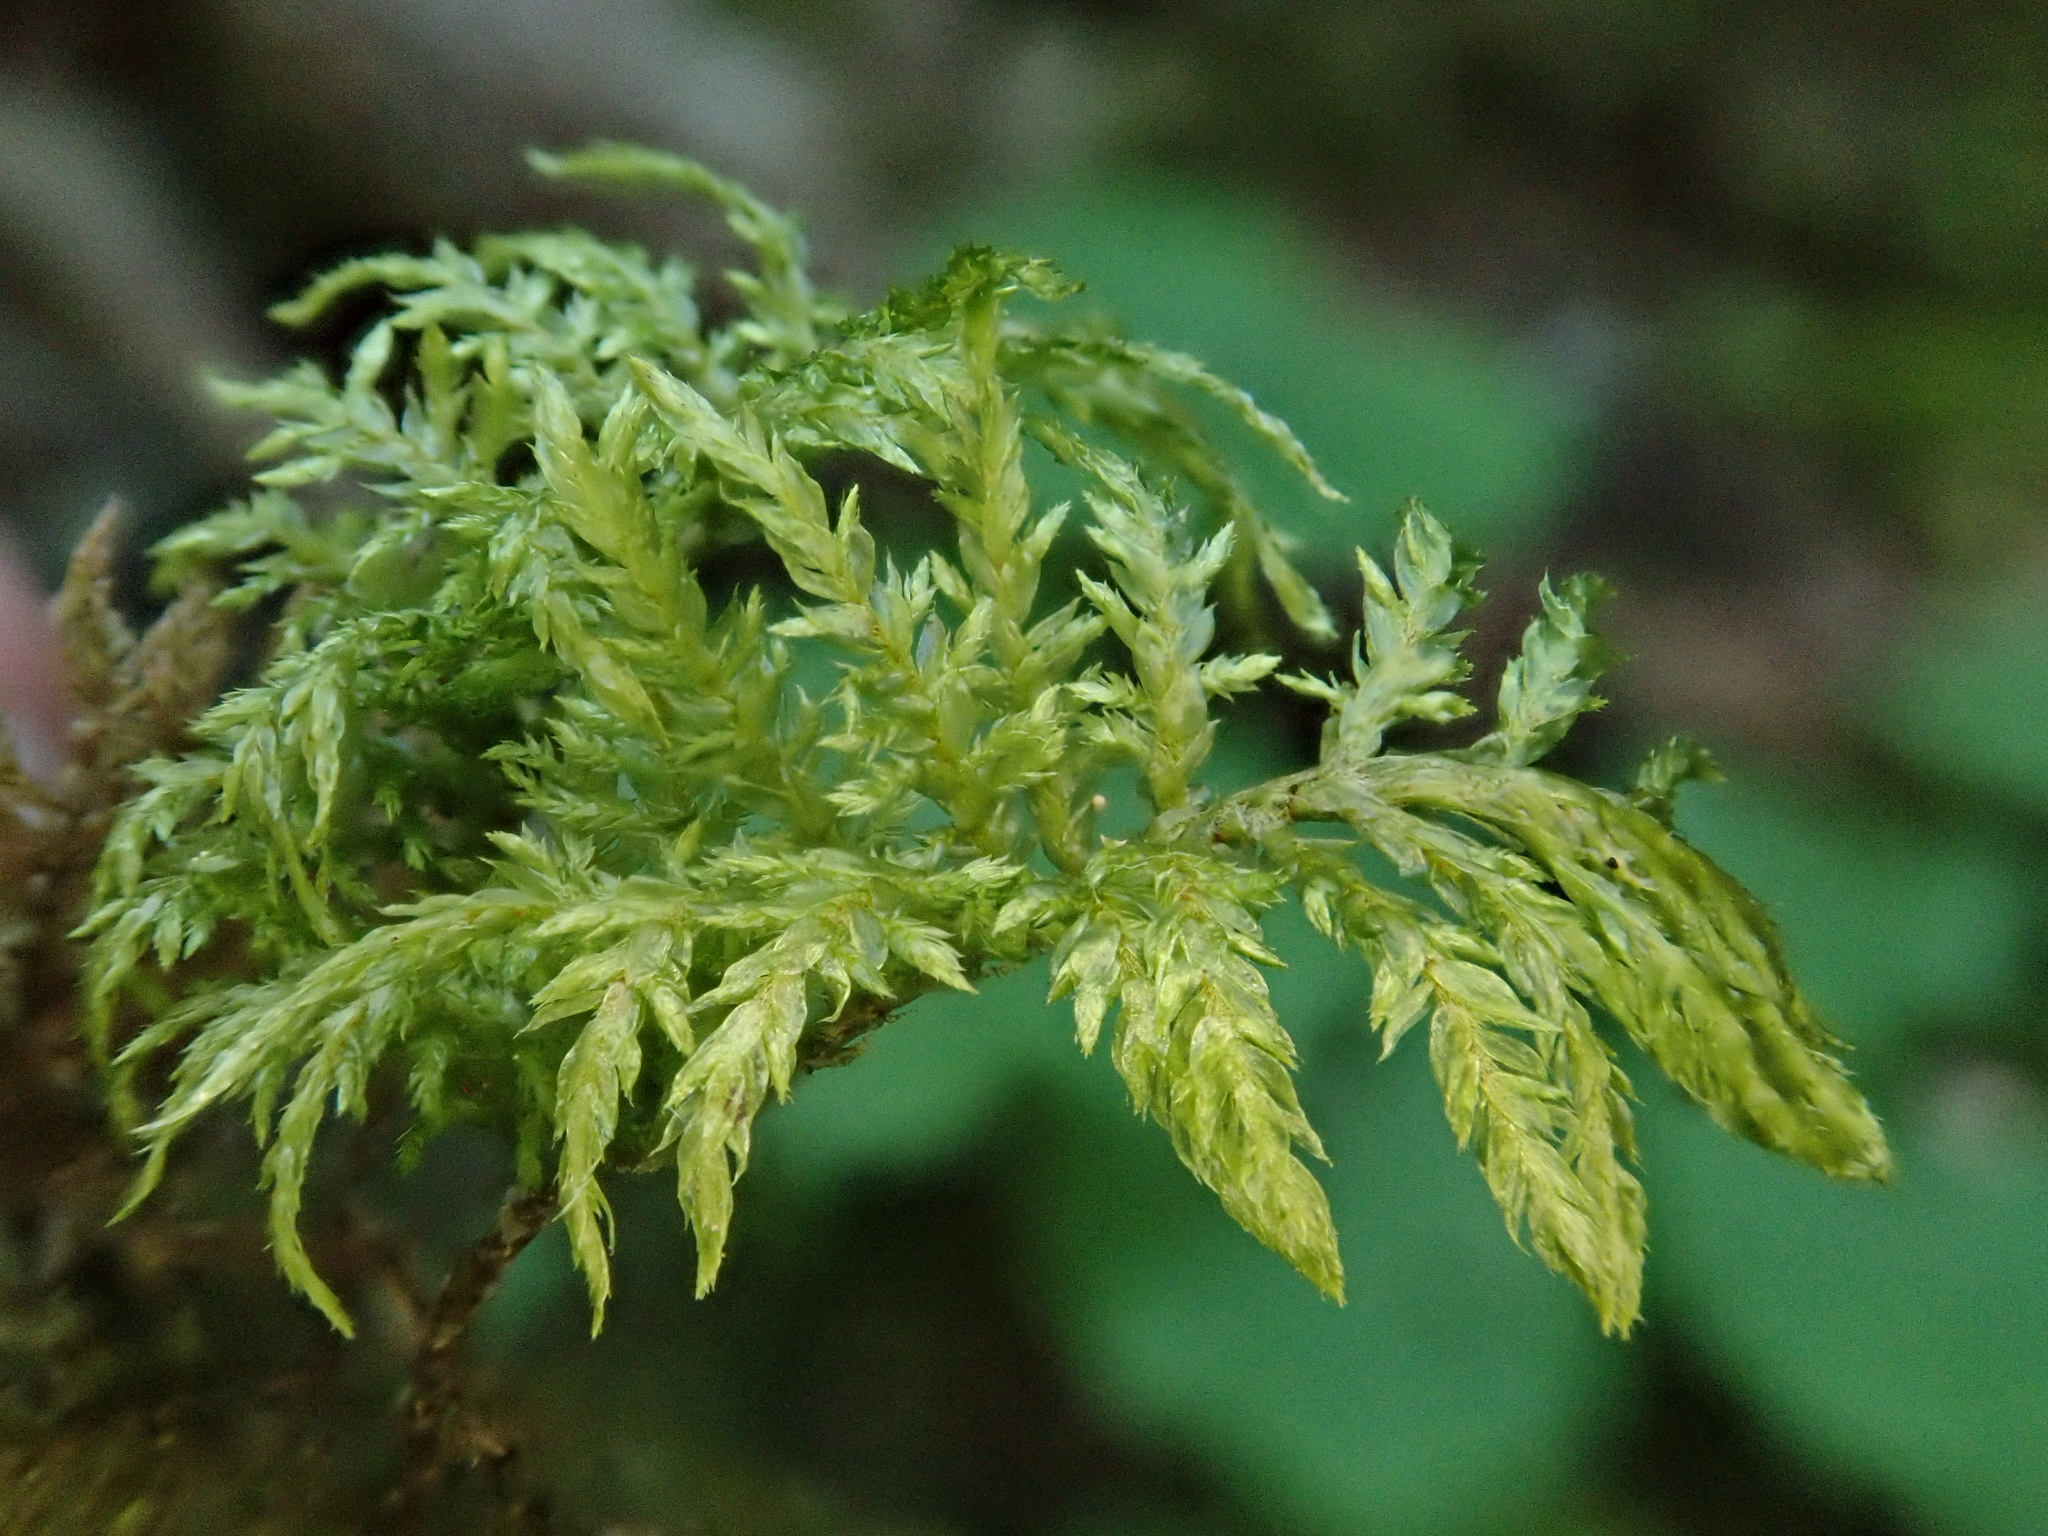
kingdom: Plantae
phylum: Bryophyta
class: Bryopsida
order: Hypnales
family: Hylocomiaceae
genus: Hylocomium
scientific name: Hylocomium splendens
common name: Stairstep moss
